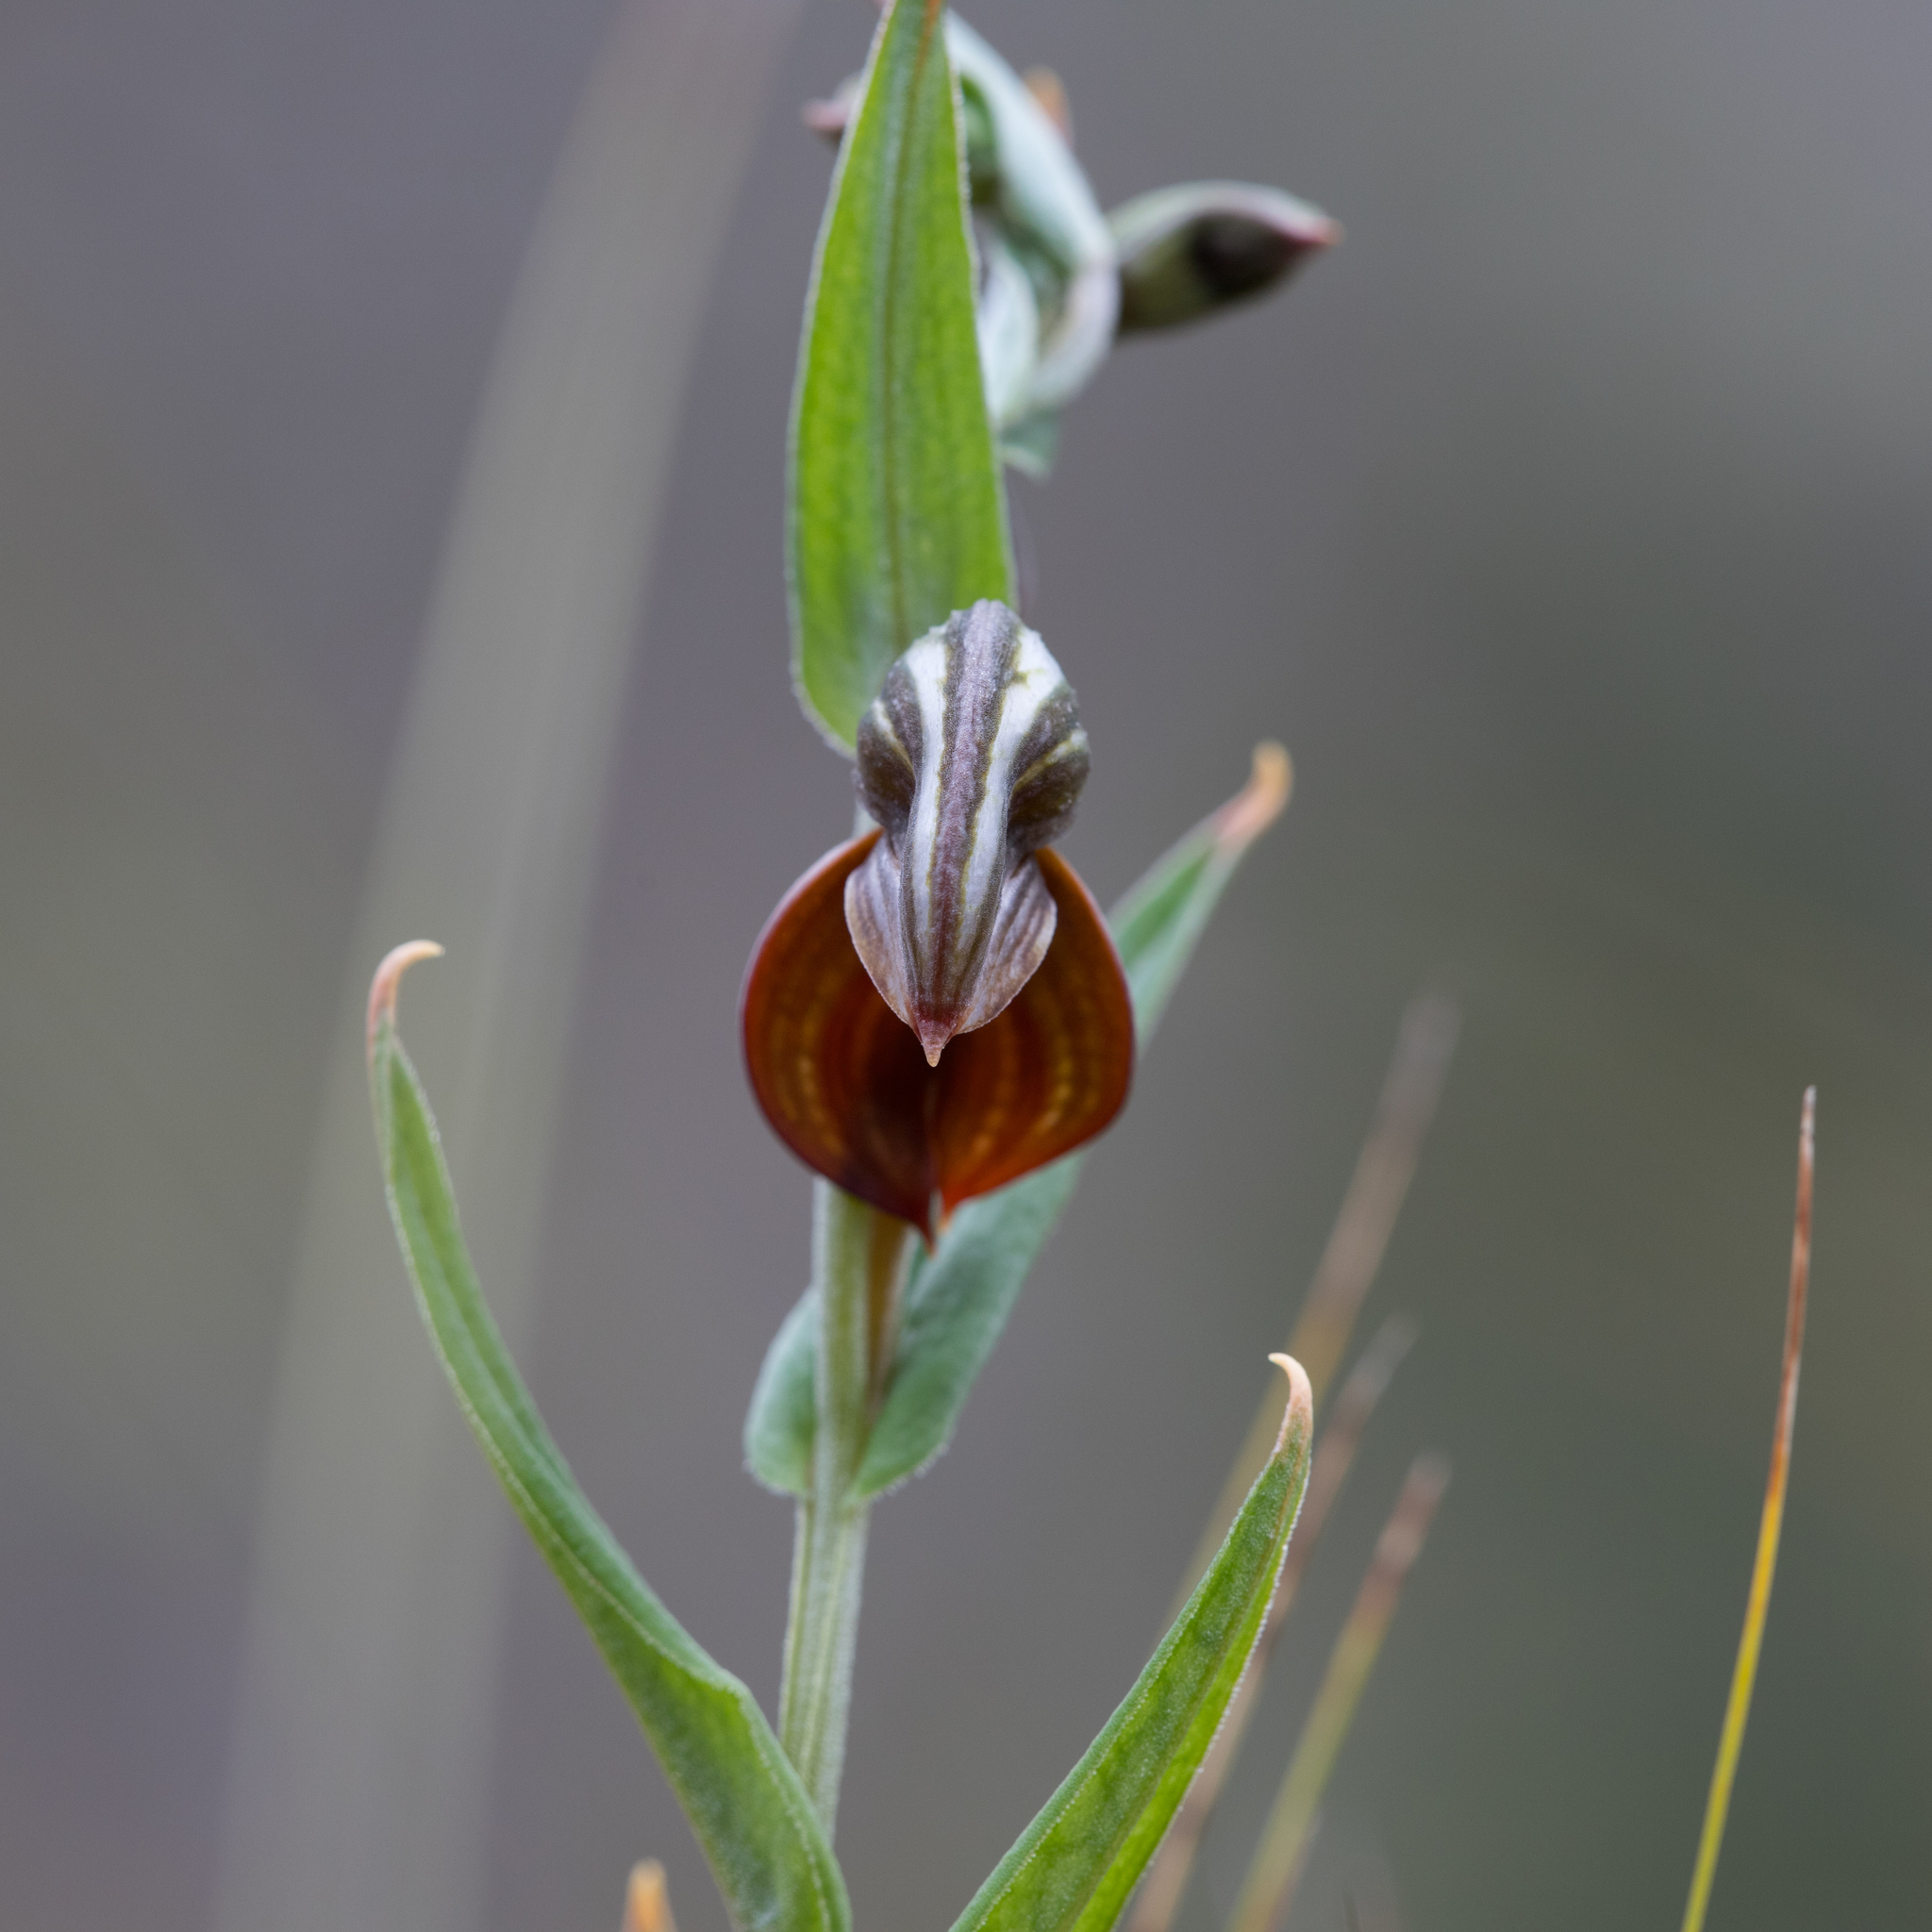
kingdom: Plantae
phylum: Tracheophyta
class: Liliopsida
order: Asparagales
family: Orchidaceae
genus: Pterostylis
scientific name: Pterostylis sanguinea
